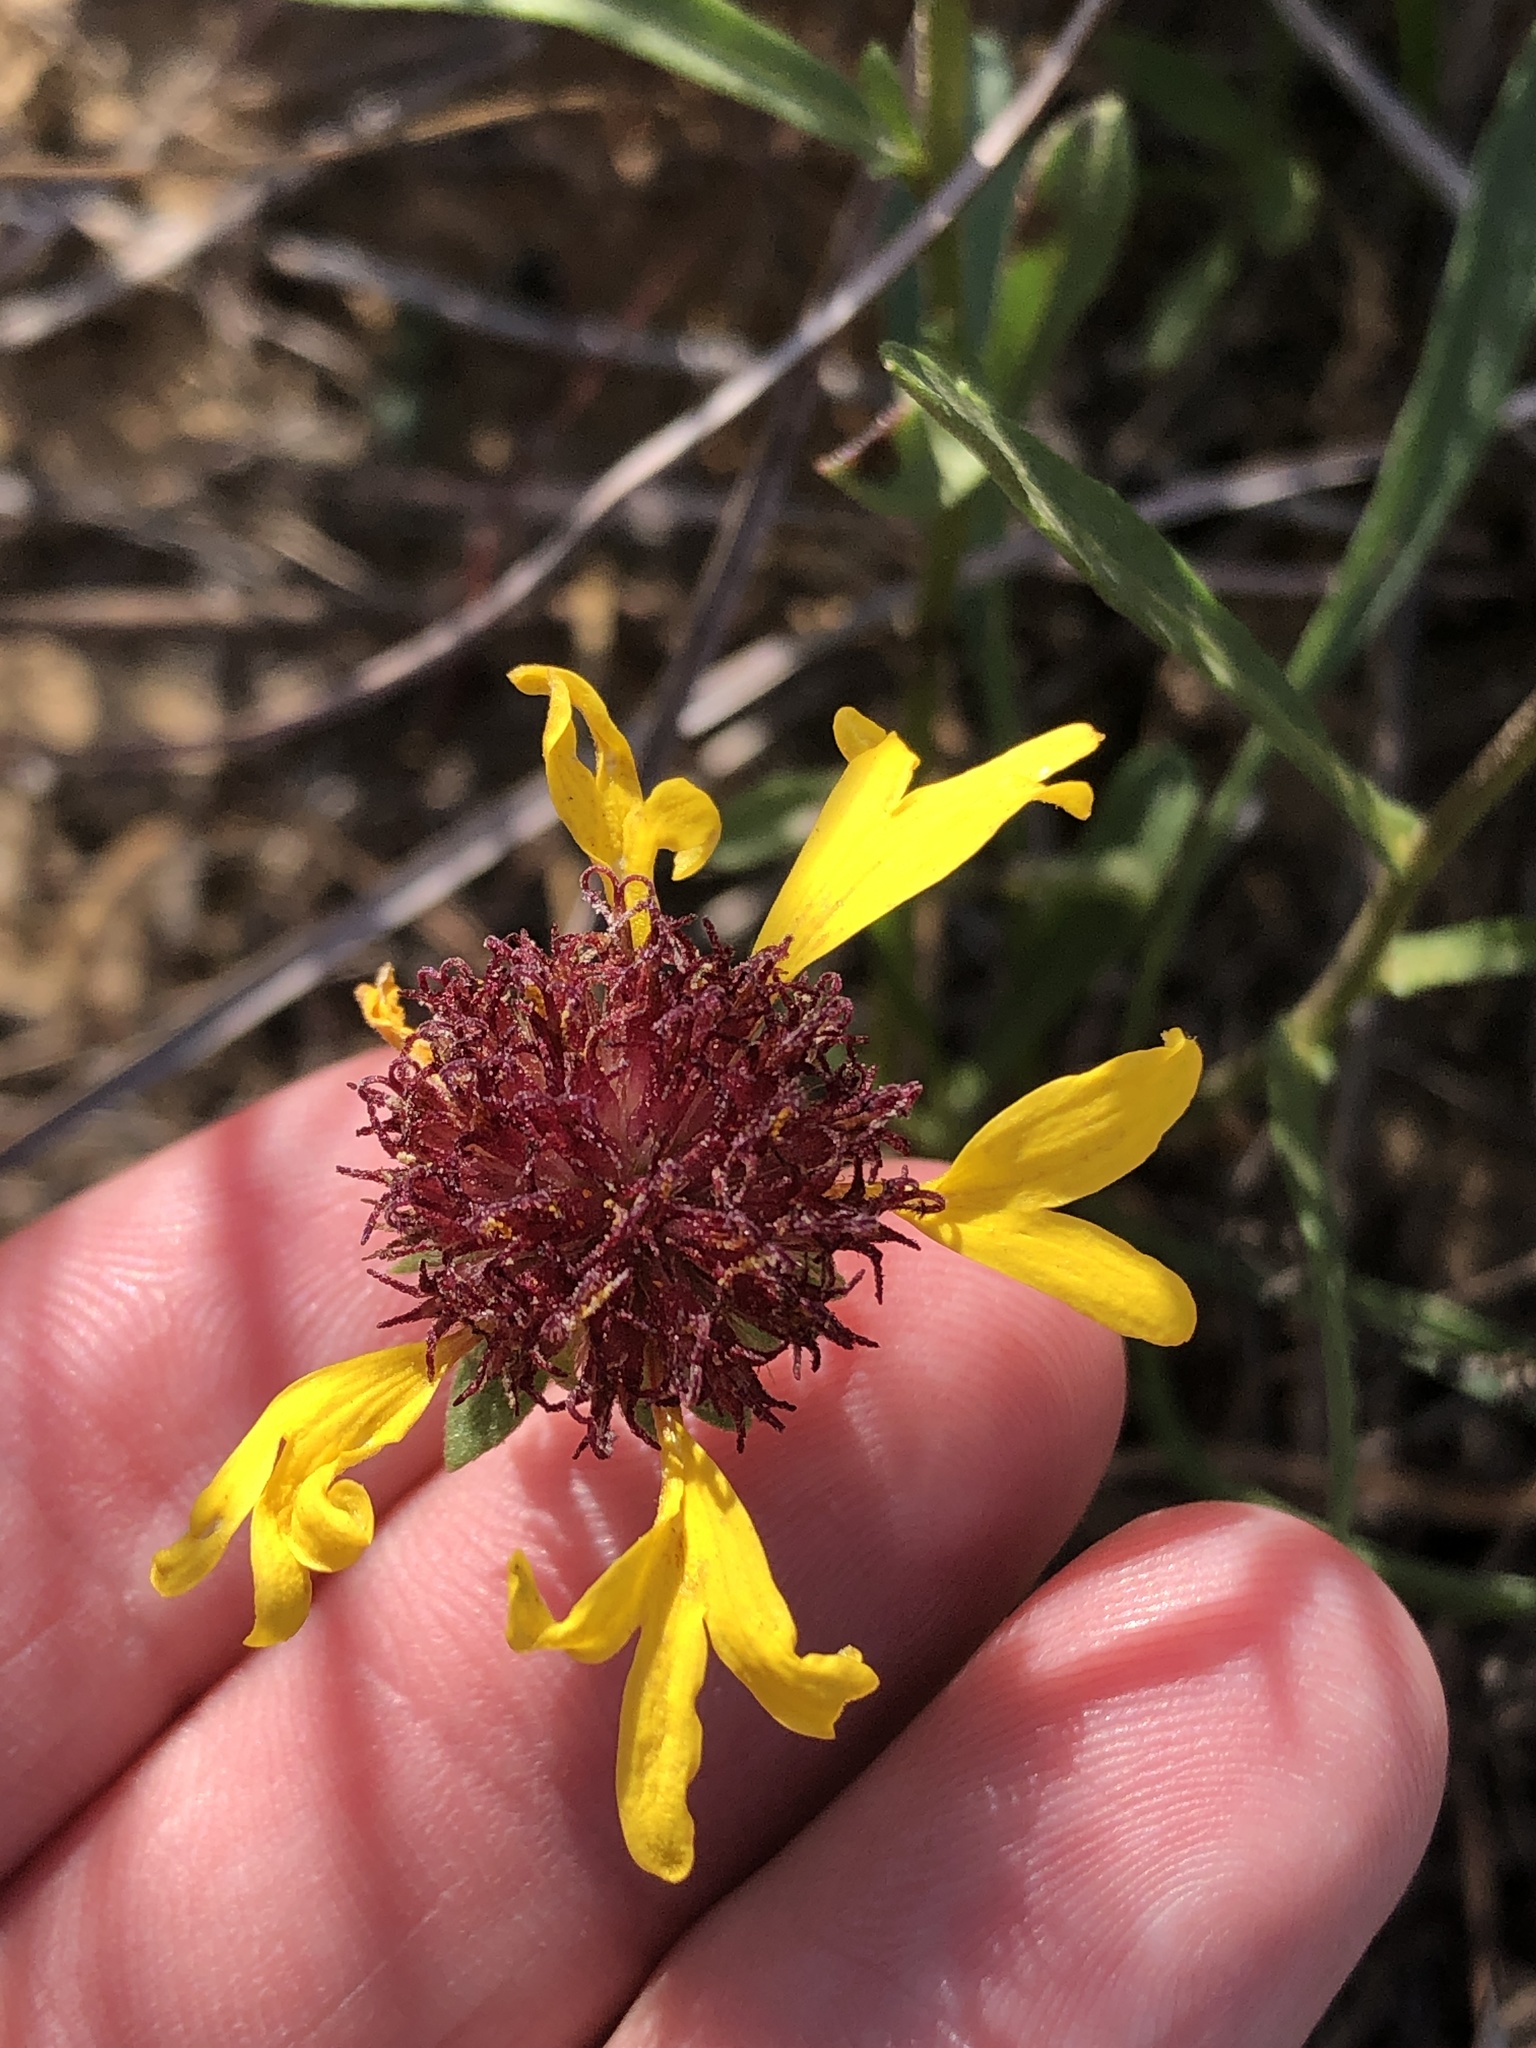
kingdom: Plantae
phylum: Tracheophyta
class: Magnoliopsida
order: Asterales
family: Asteraceae
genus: Gaillardia
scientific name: Gaillardia aestivalis
